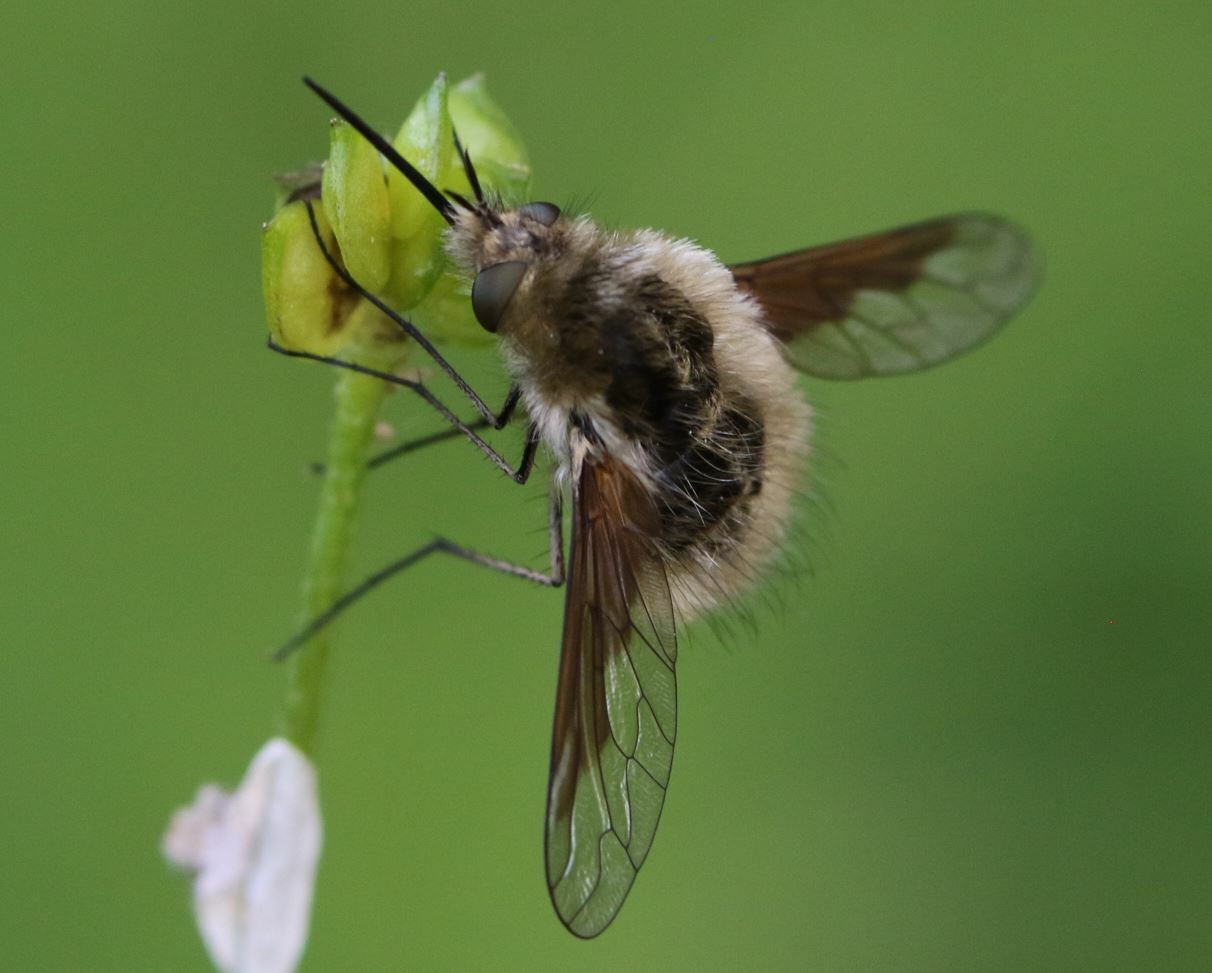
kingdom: Animalia
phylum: Arthropoda
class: Insecta
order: Diptera
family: Bombyliidae
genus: Bombylius
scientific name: Bombylius analis
